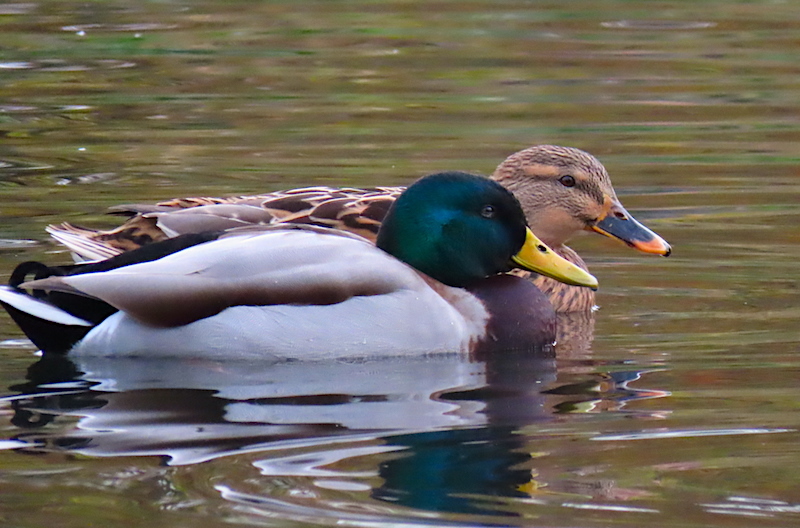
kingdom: Animalia
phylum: Chordata
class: Aves
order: Anseriformes
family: Anatidae
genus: Anas
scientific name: Anas platyrhynchos
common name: Mallard
